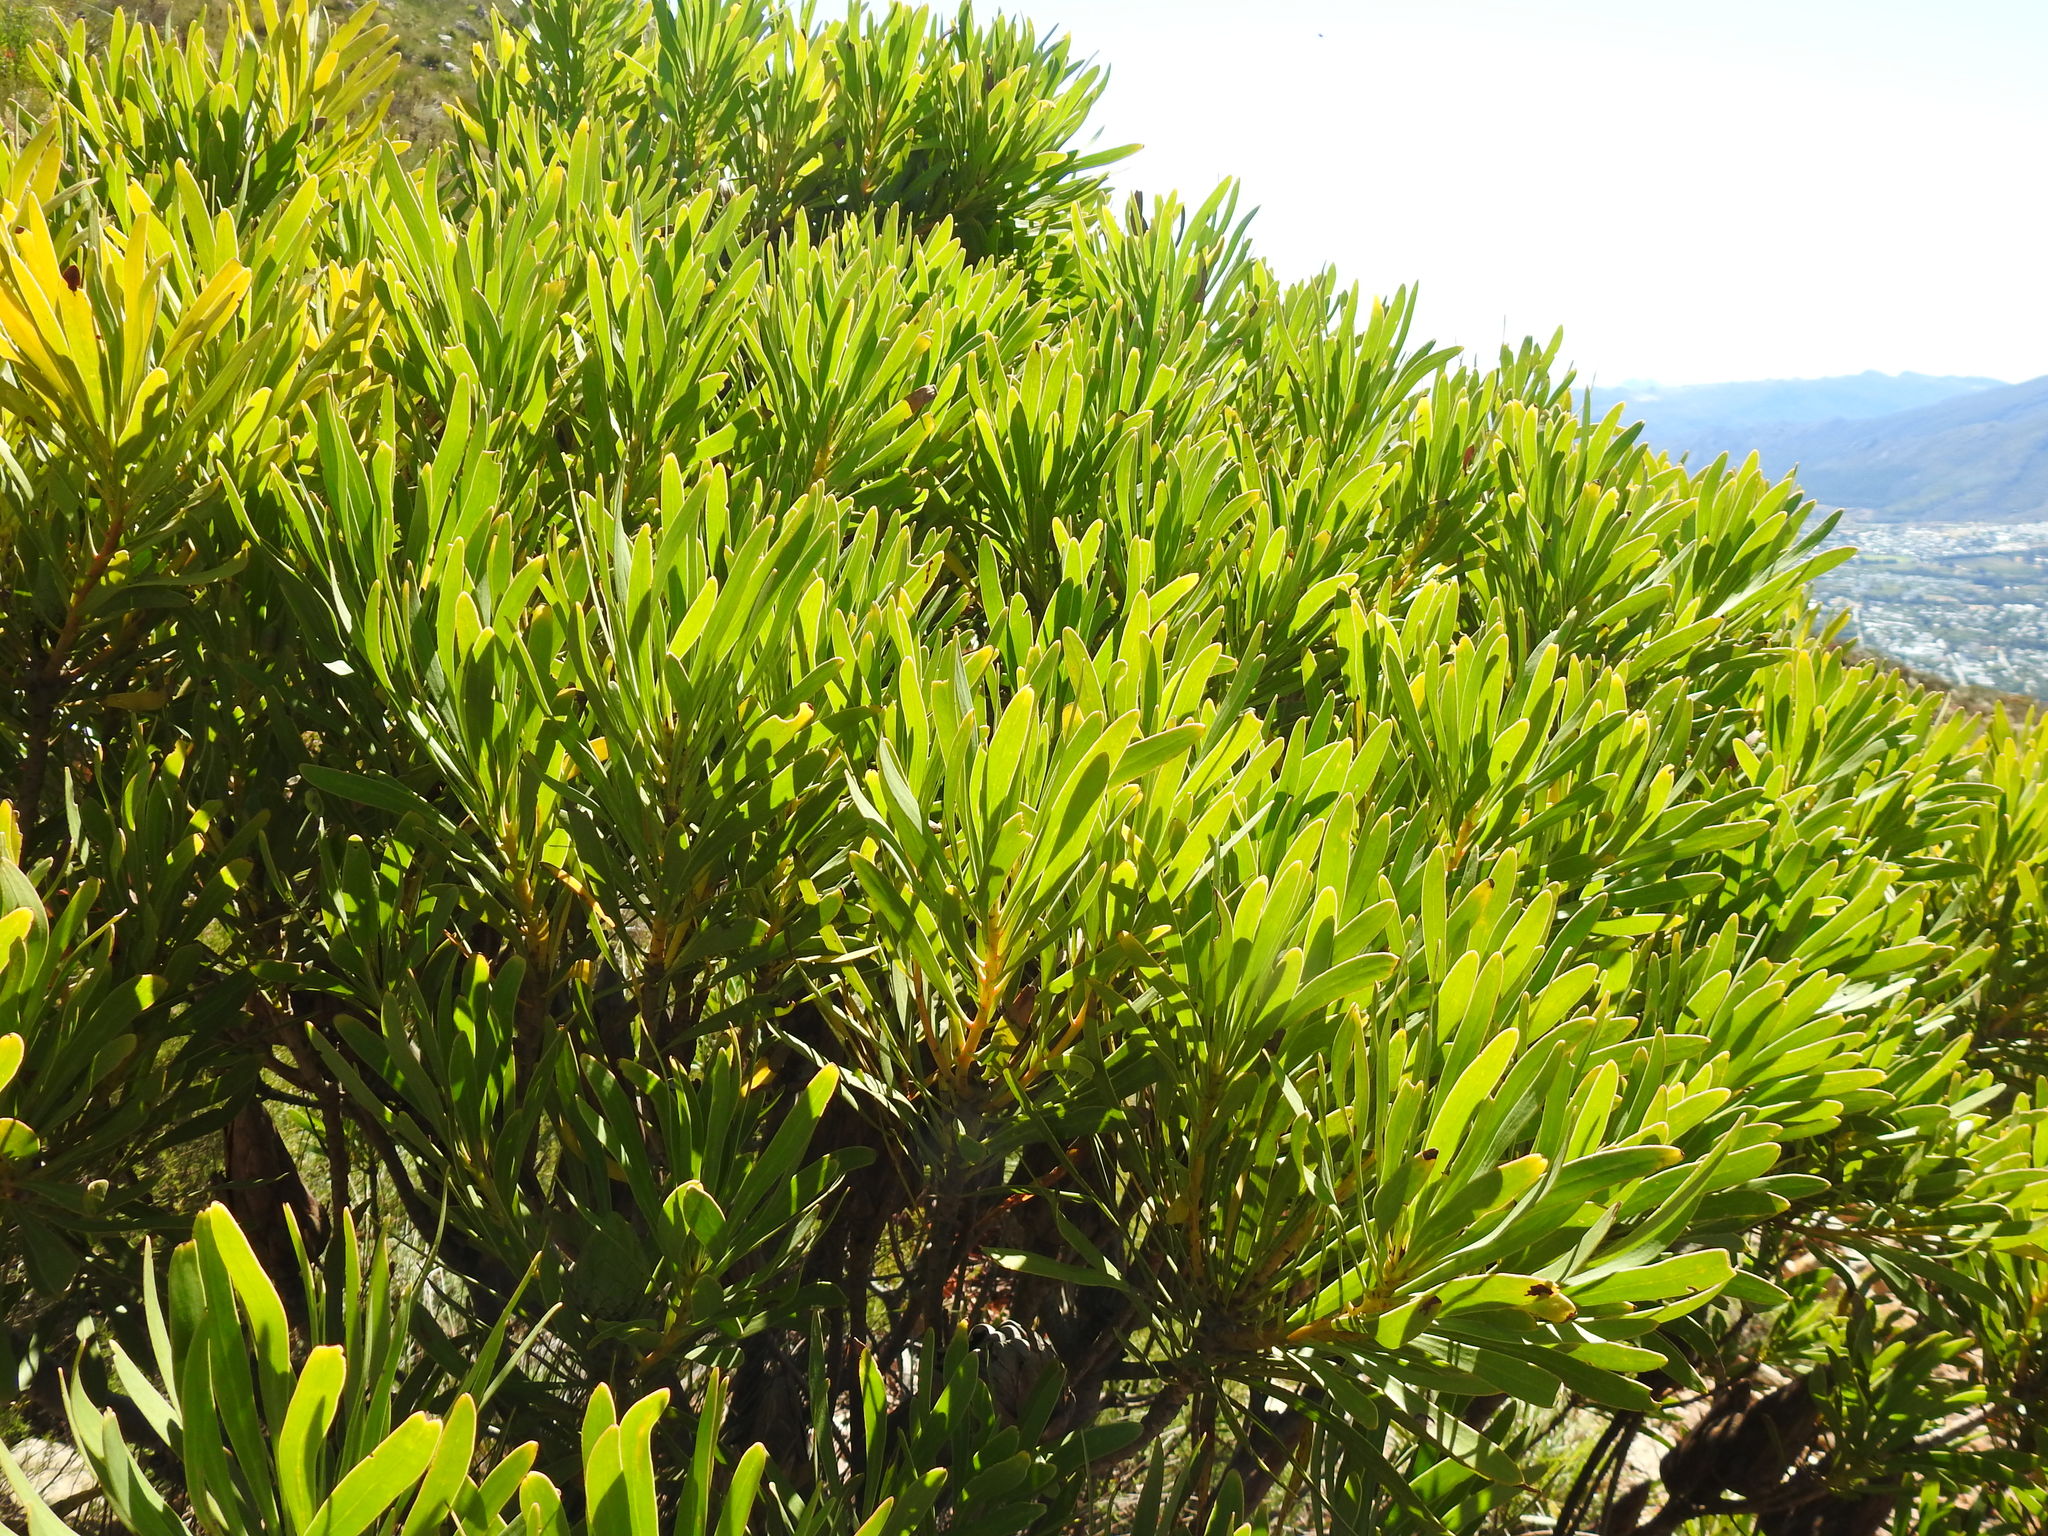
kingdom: Plantae
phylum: Tracheophyta
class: Magnoliopsida
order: Proteales
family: Proteaceae
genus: Protea
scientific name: Protea repens
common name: Sugarbush
